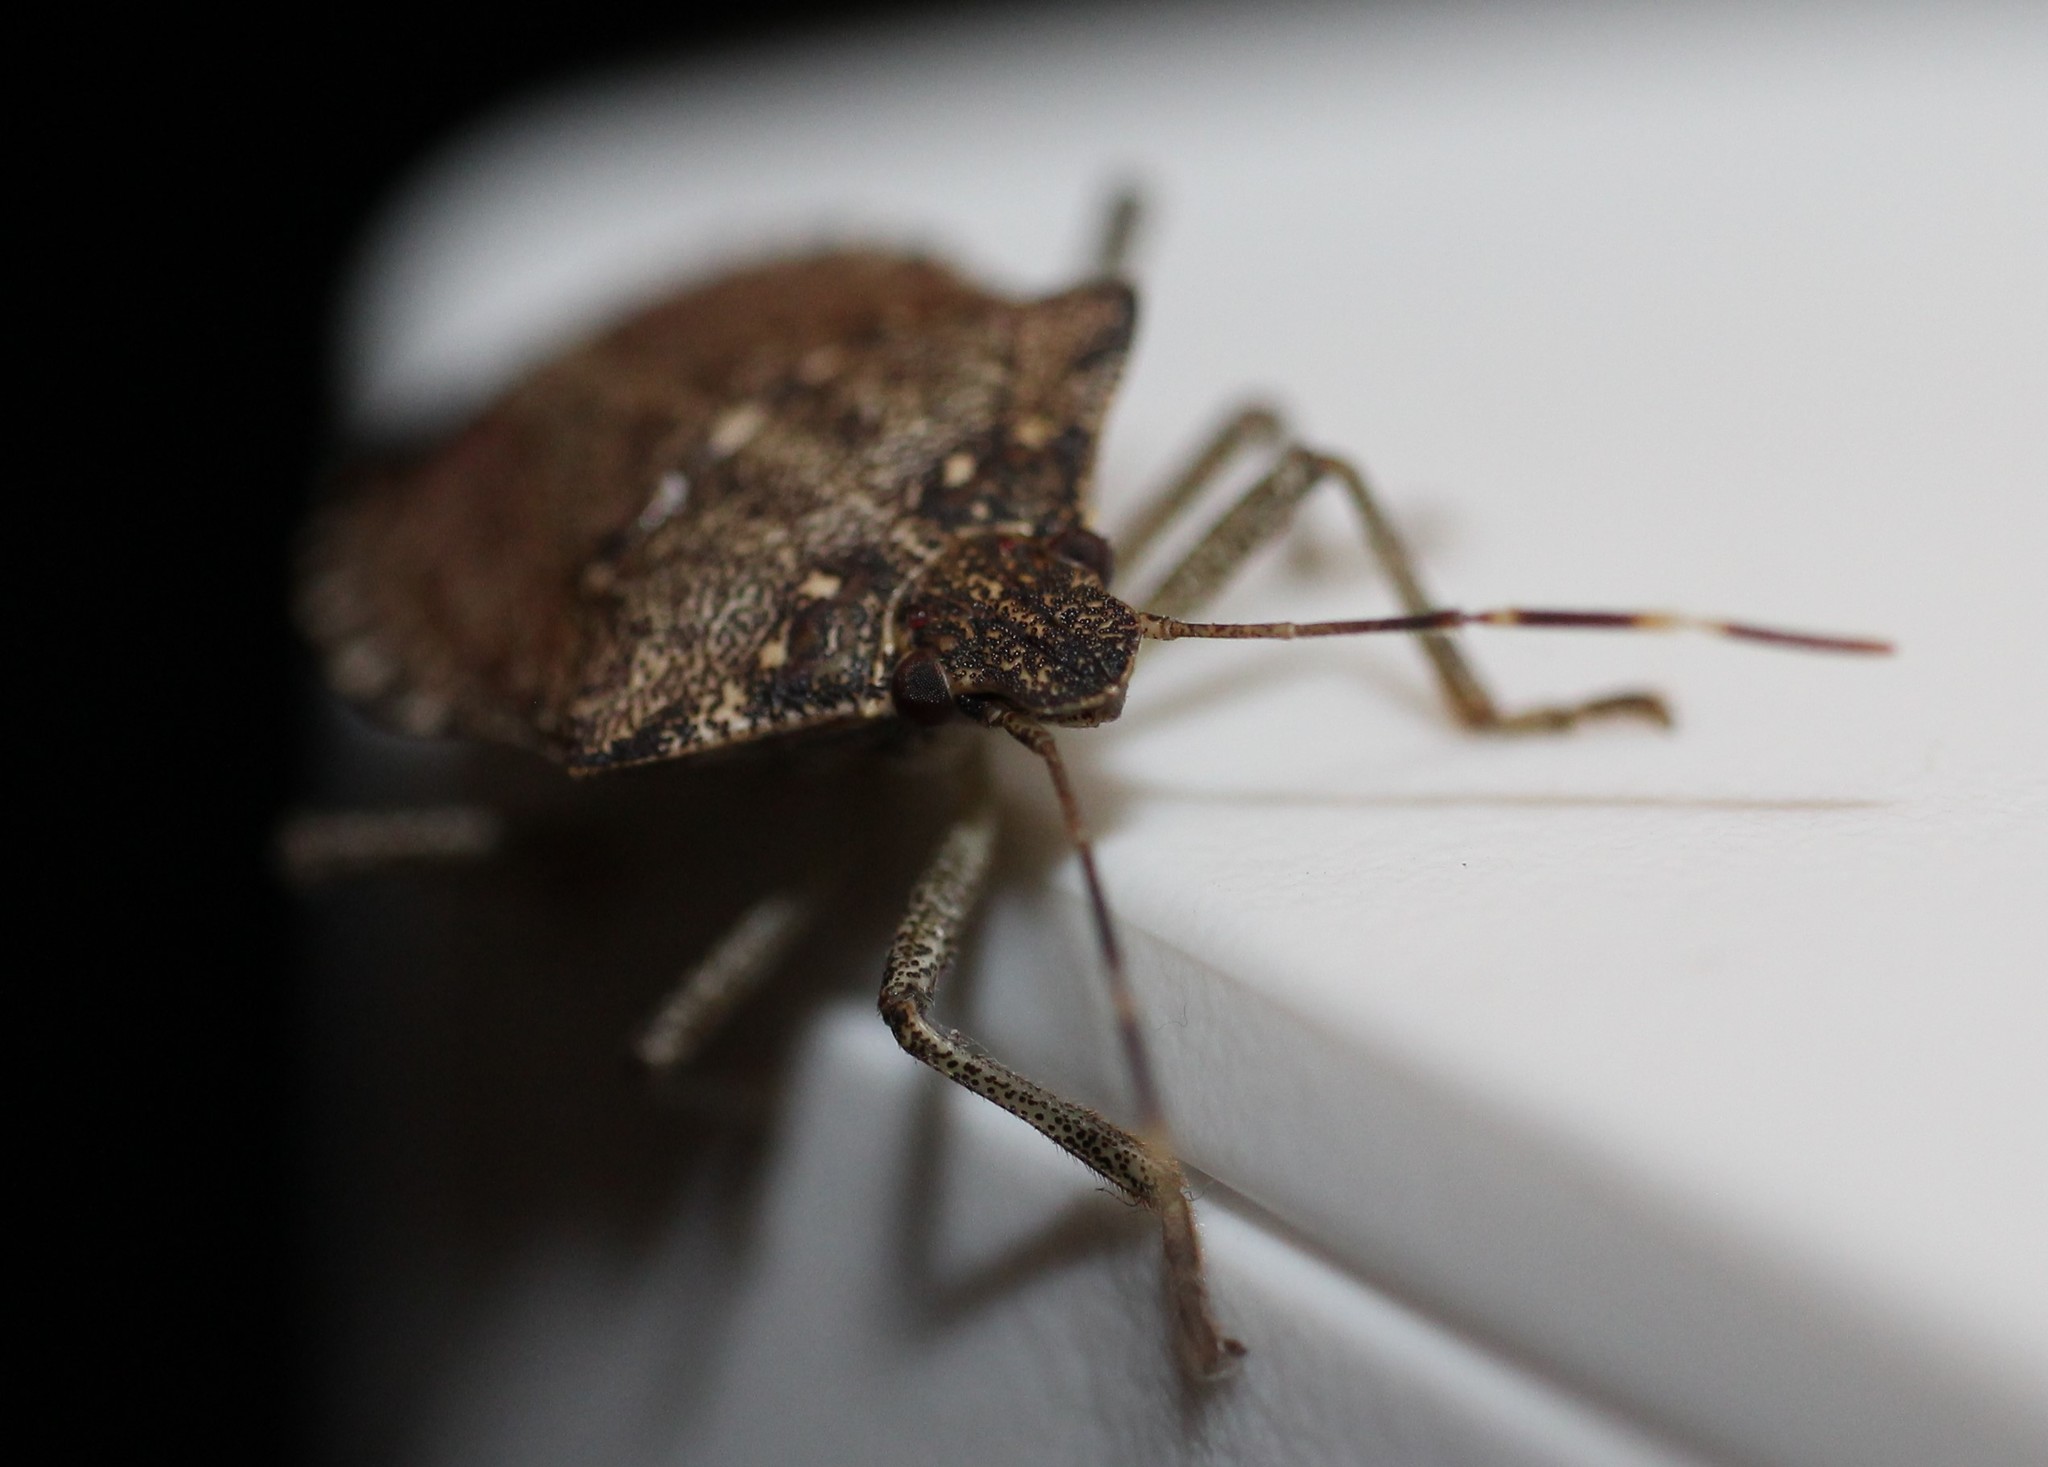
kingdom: Animalia
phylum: Arthropoda
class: Insecta
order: Hemiptera
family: Pentatomidae
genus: Halyomorpha
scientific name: Halyomorpha halys
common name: Brown marmorated stink bug
